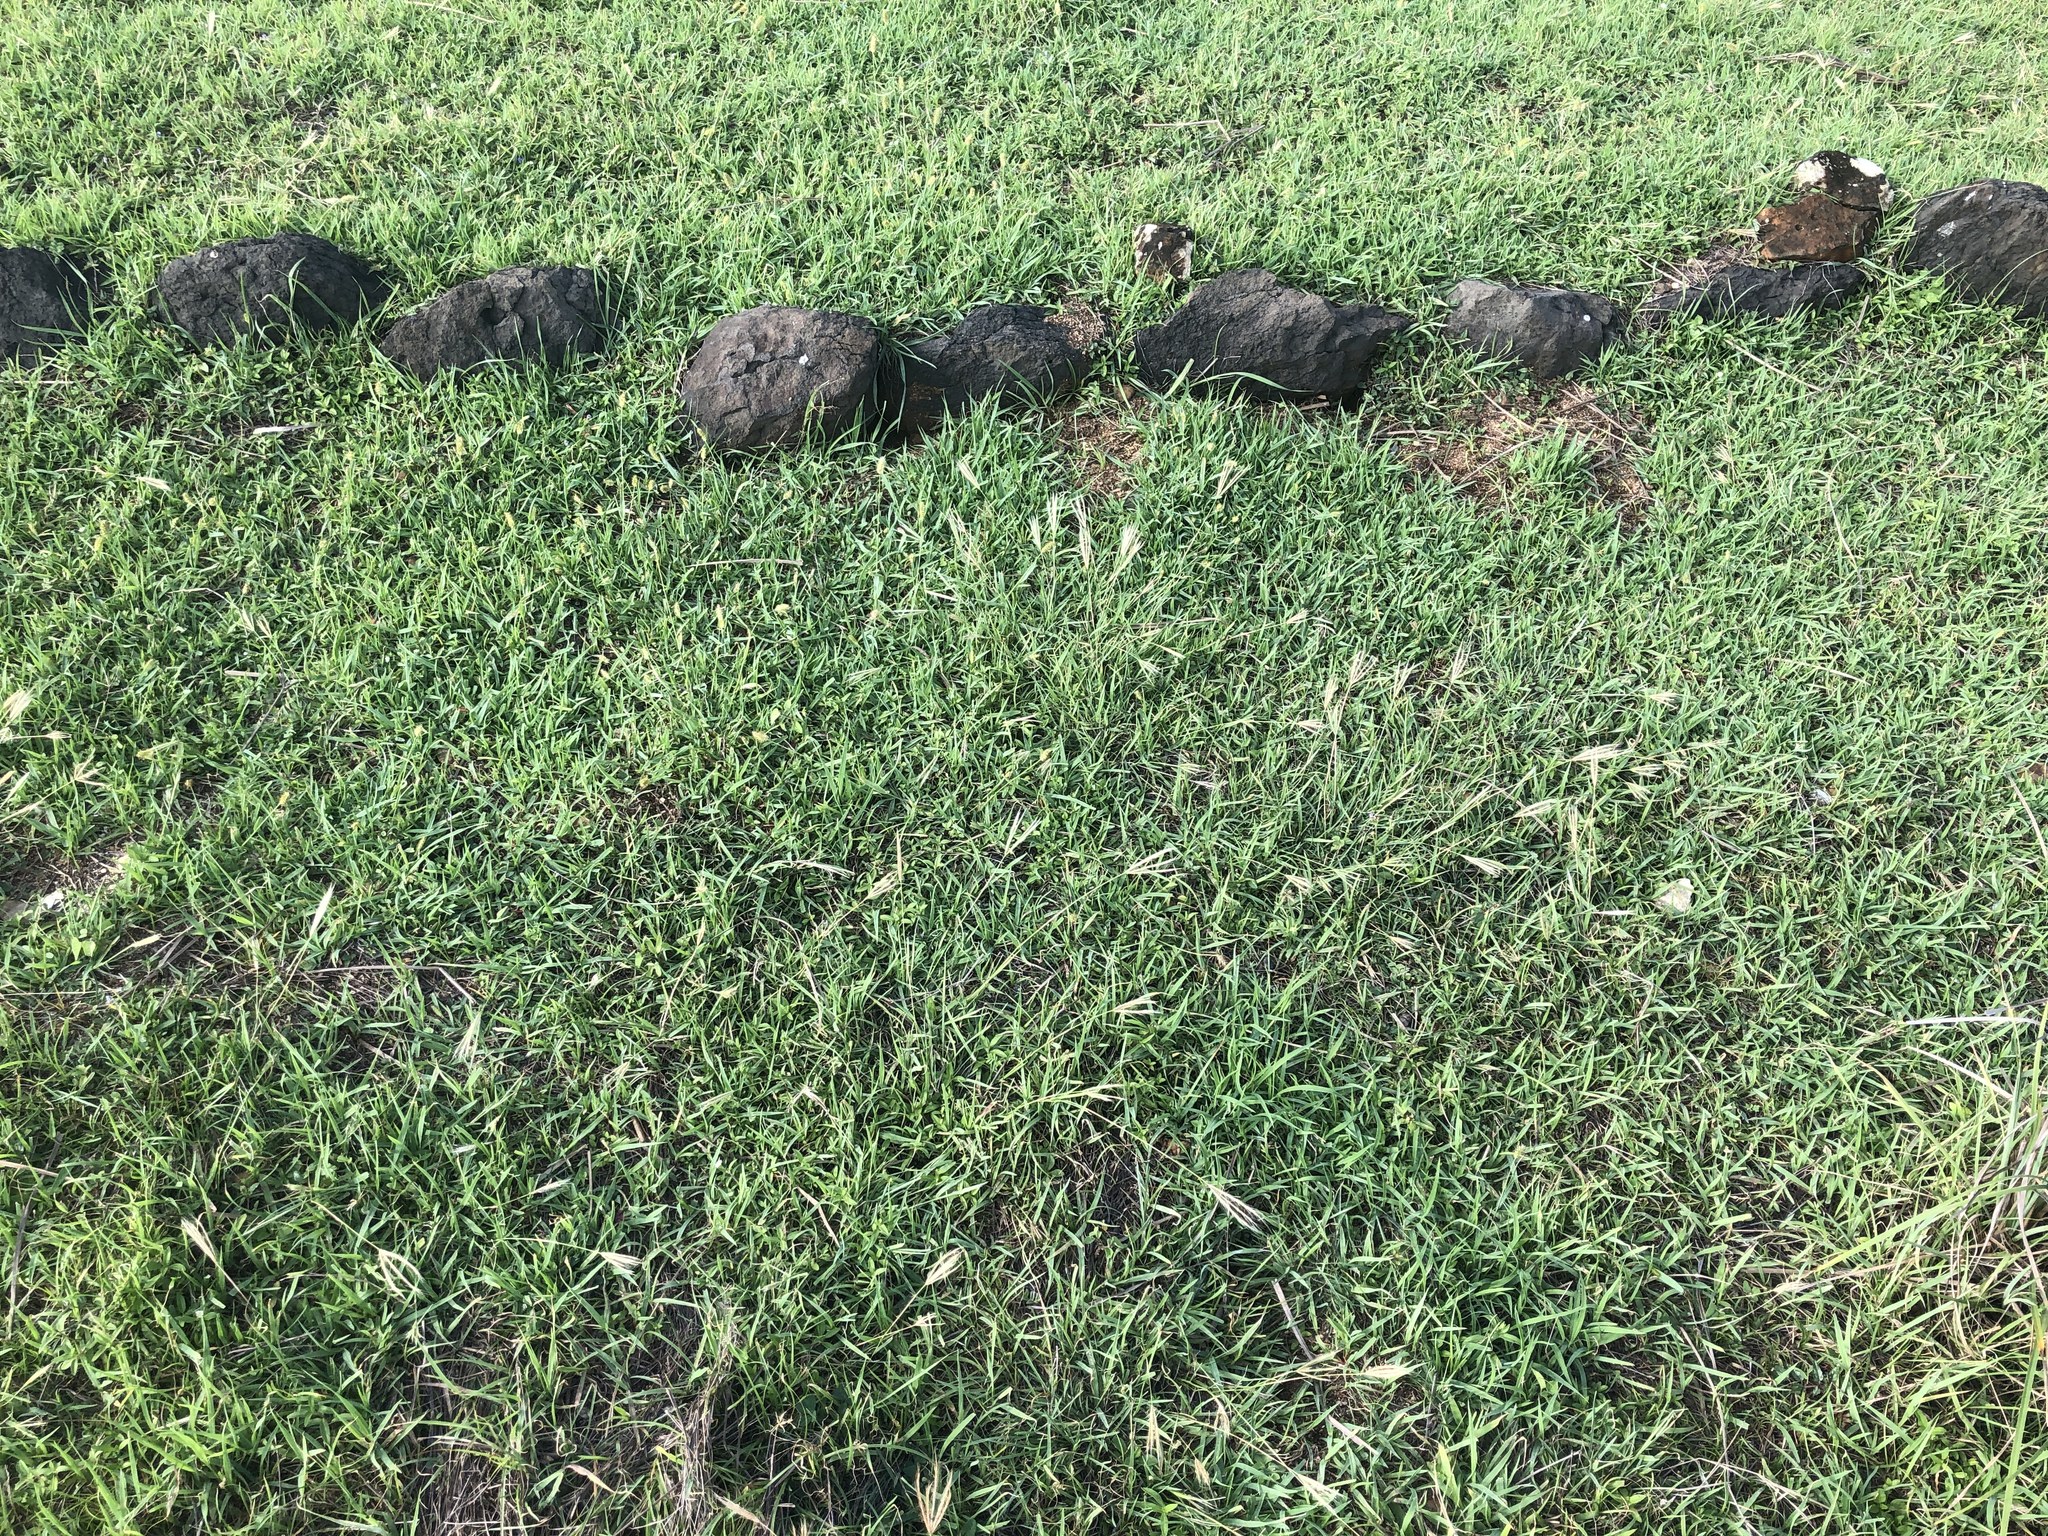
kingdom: Plantae
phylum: Tracheophyta
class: Liliopsida
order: Poales
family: Poaceae
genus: Chloris
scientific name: Chloris divaricata
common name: Spreading windmill grass
